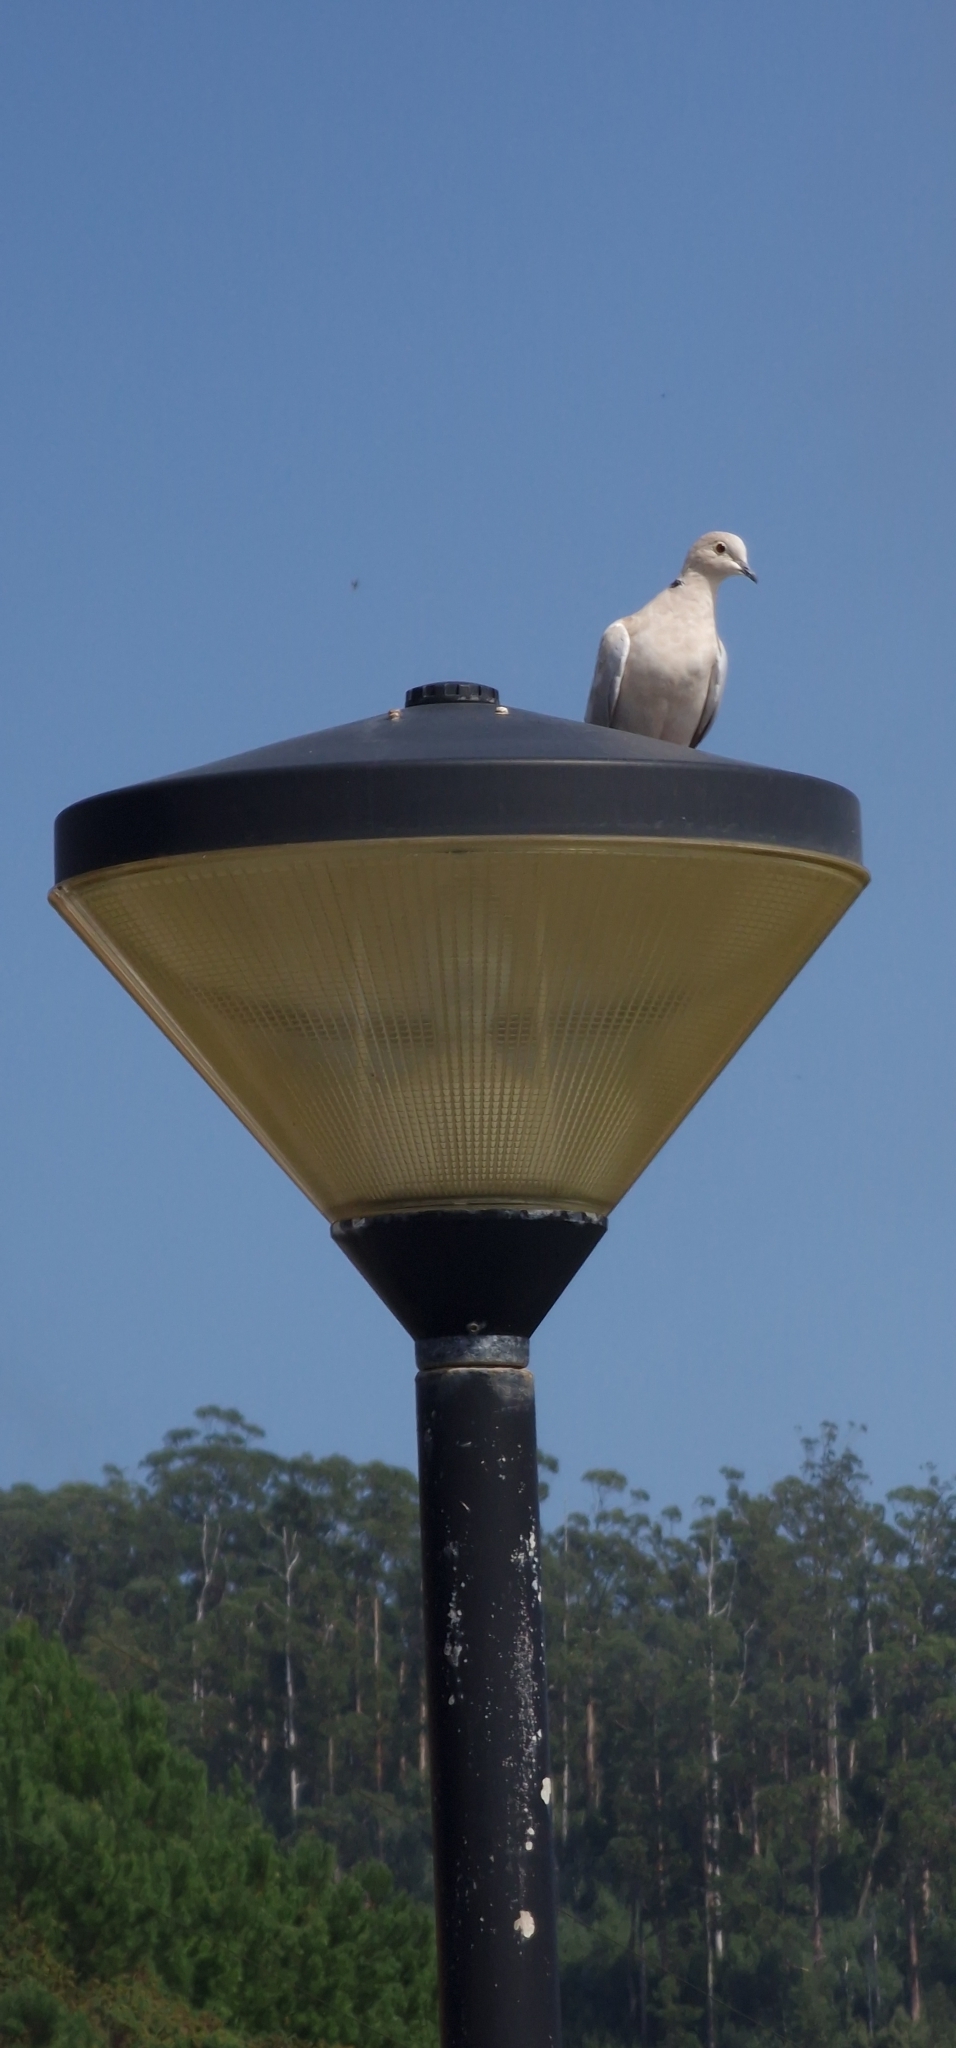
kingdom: Animalia
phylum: Chordata
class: Aves
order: Columbiformes
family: Columbidae
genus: Streptopelia
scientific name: Streptopelia decaocto
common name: Eurasian collared dove
